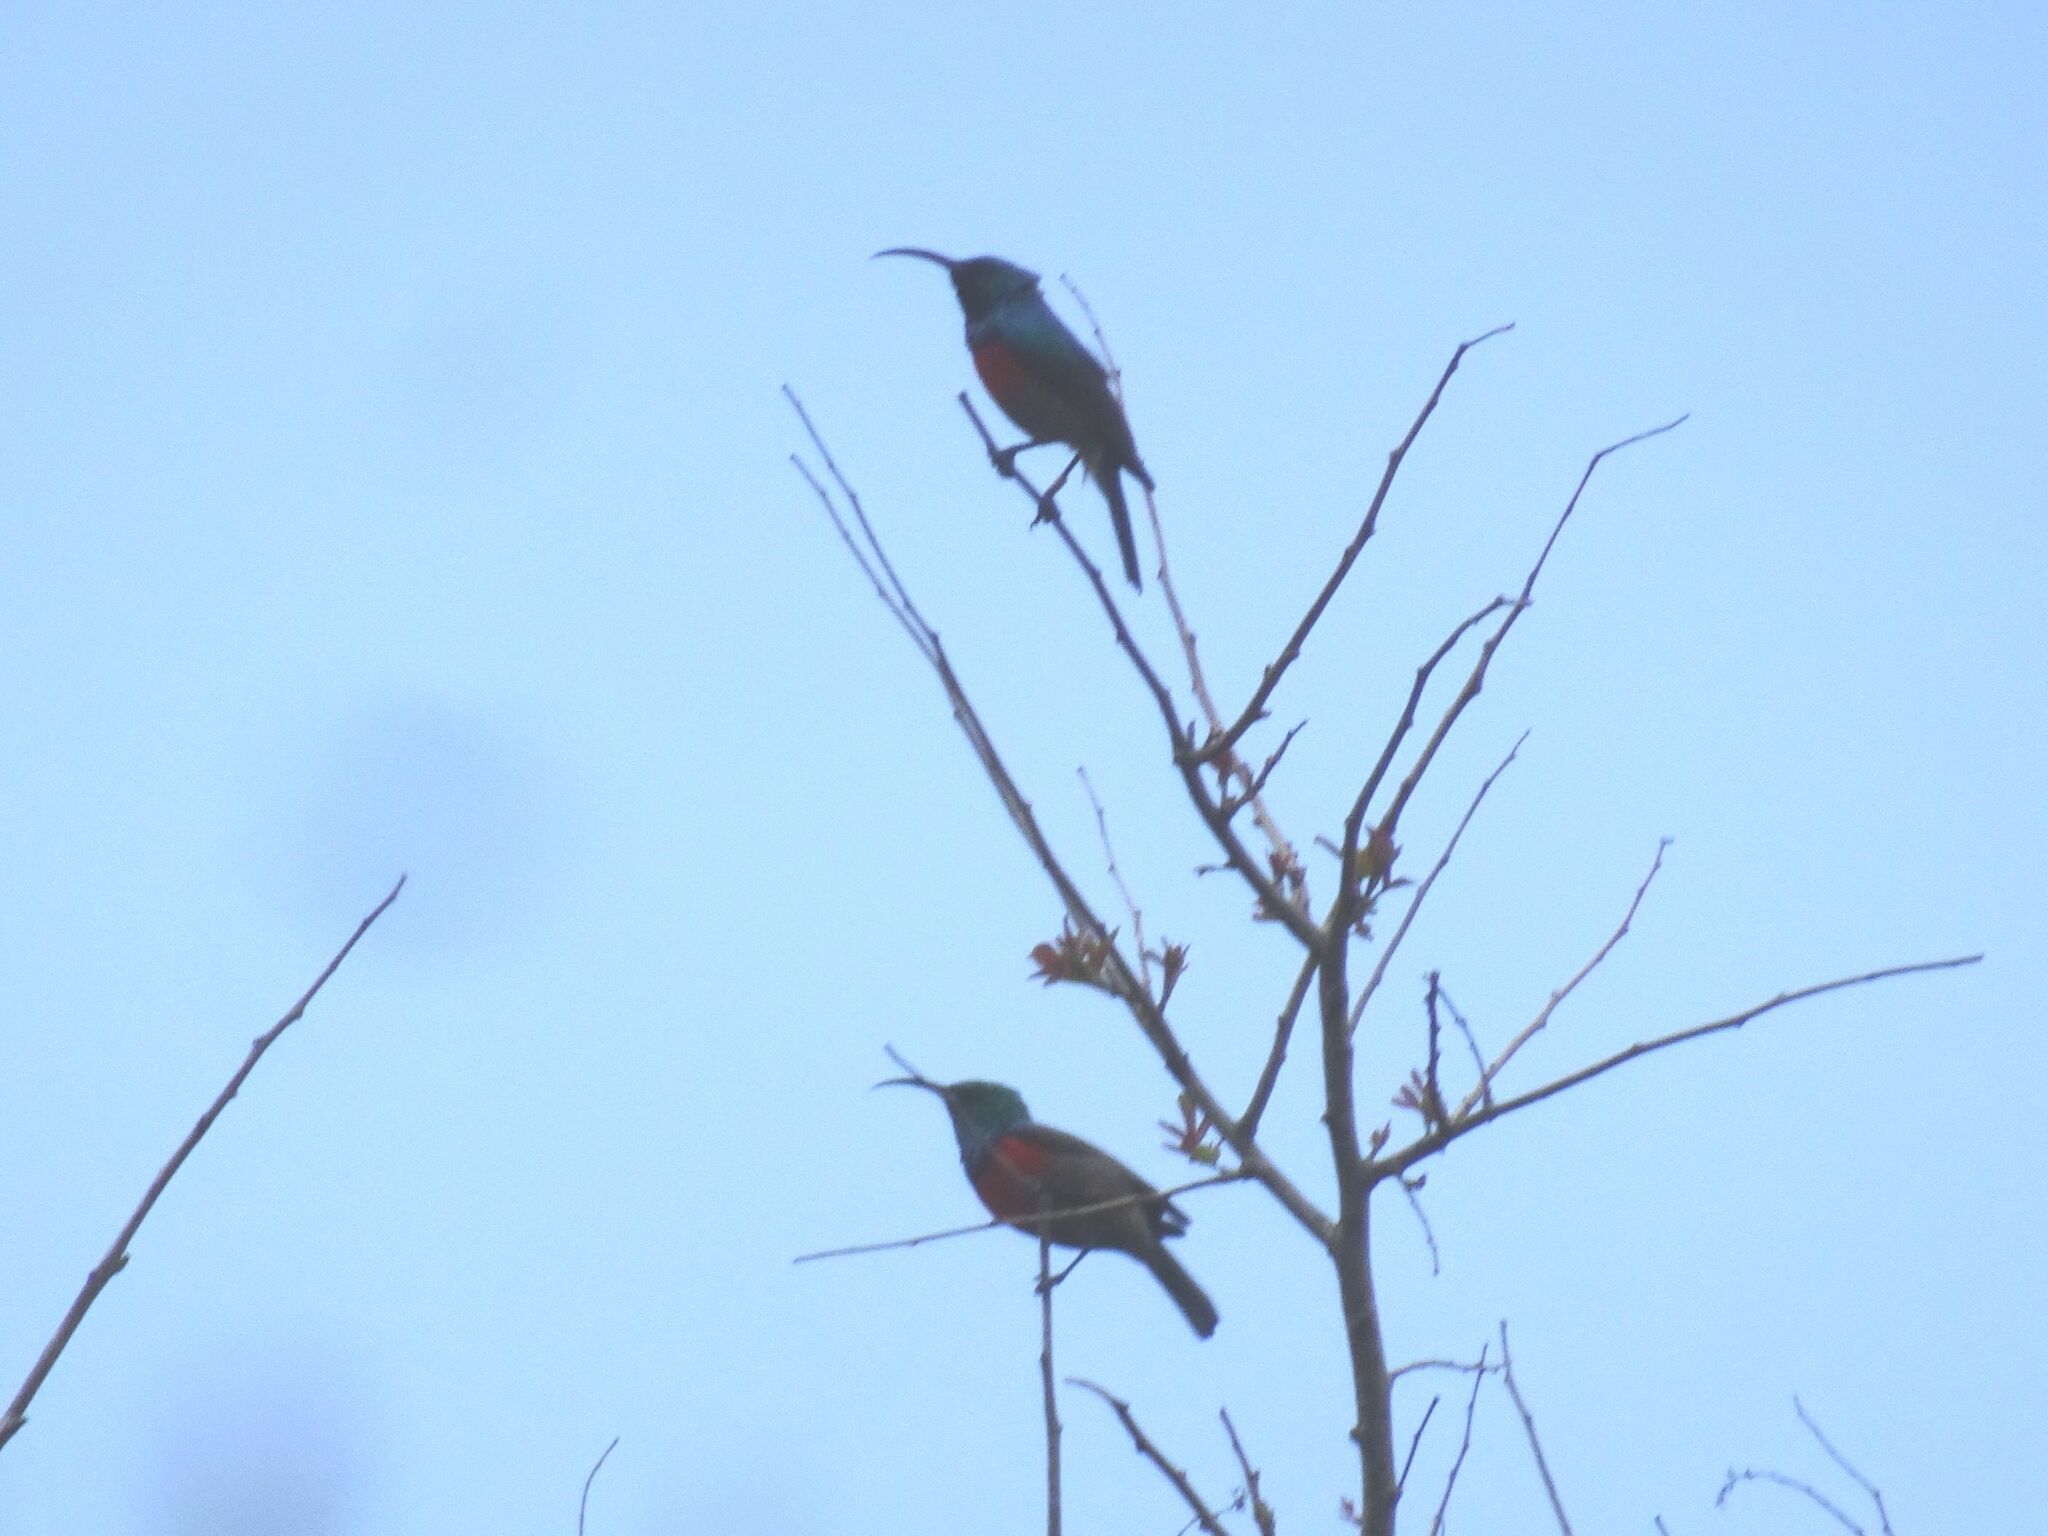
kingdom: Animalia
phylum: Chordata
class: Aves
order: Passeriformes
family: Nectariniidae
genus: Cinnyris
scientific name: Cinnyris afer
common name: Greater double-collared sunbird
